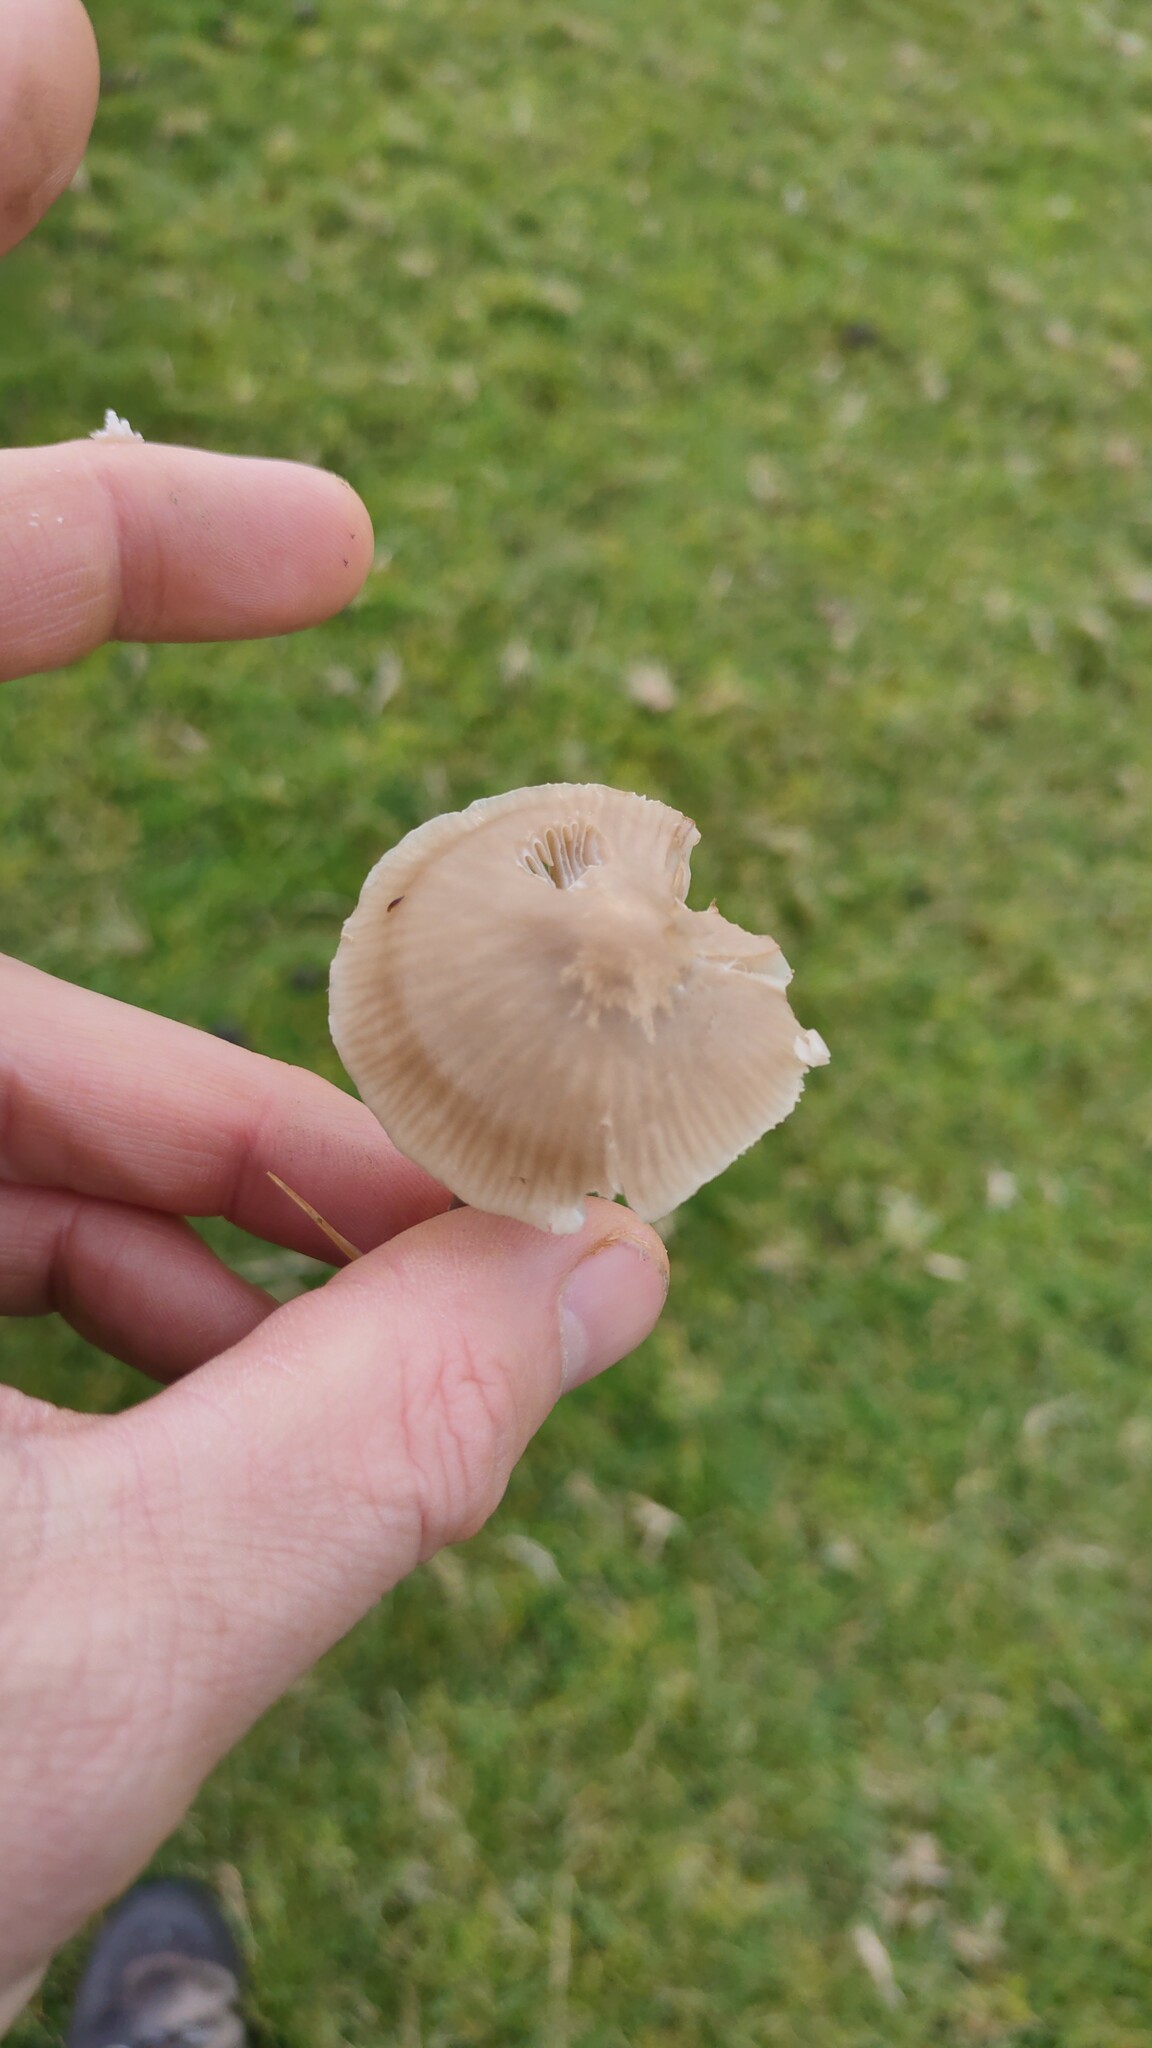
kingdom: Fungi
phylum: Basidiomycota
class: Agaricomycetes
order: Agaricales
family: Hygrophoraceae
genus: Gliophorus
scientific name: Gliophorus irrigatus
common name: Slimy waxcap
